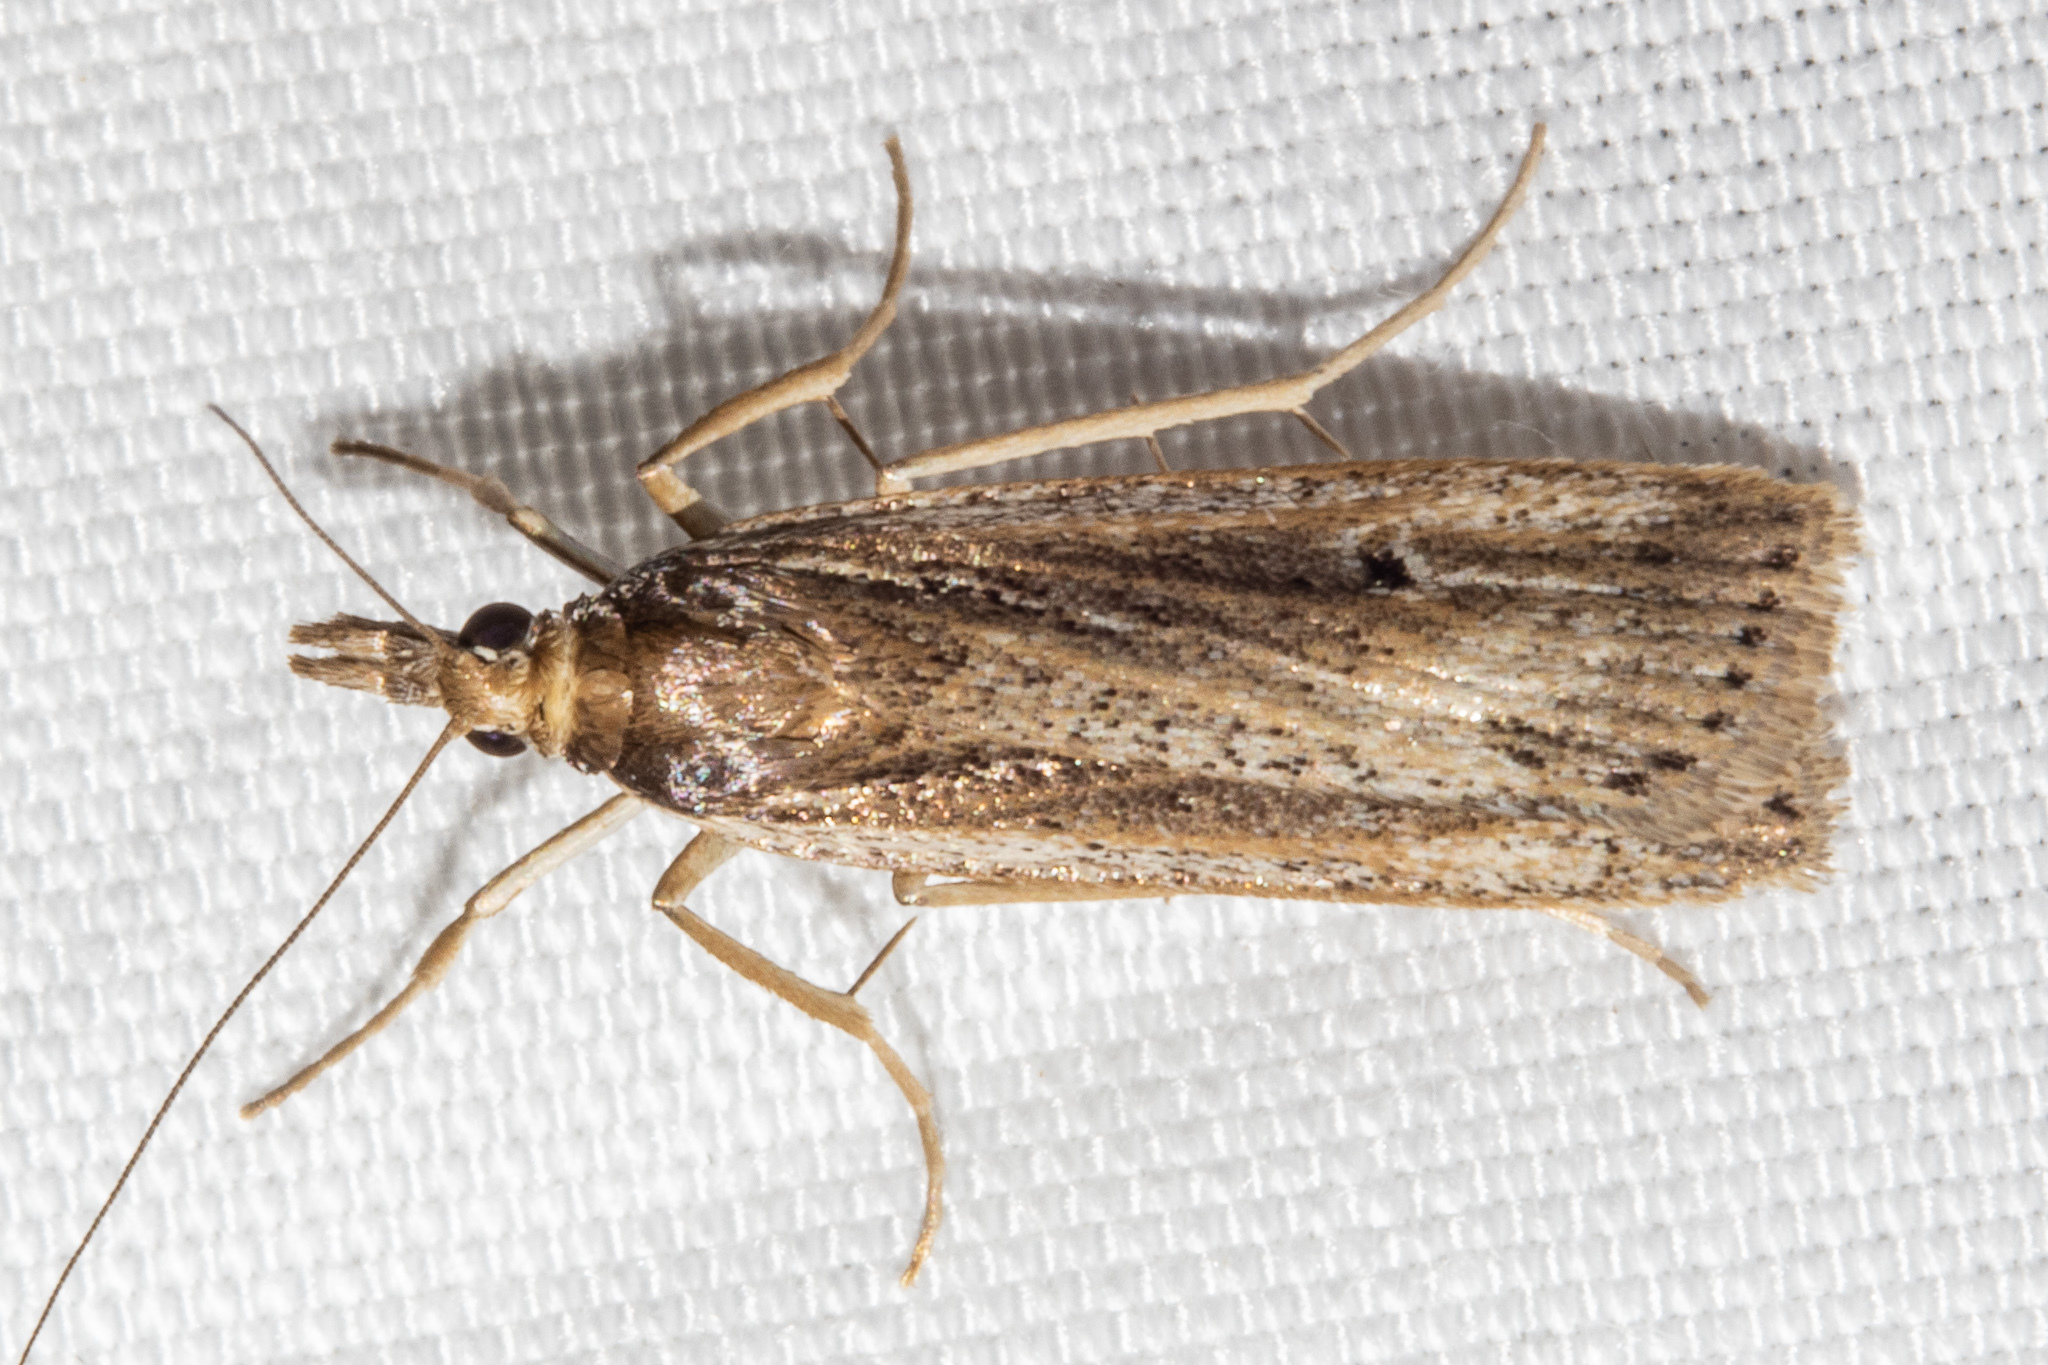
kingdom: Animalia
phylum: Arthropoda
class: Insecta
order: Lepidoptera
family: Crambidae
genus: Eudonia
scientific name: Eudonia sabulosella
